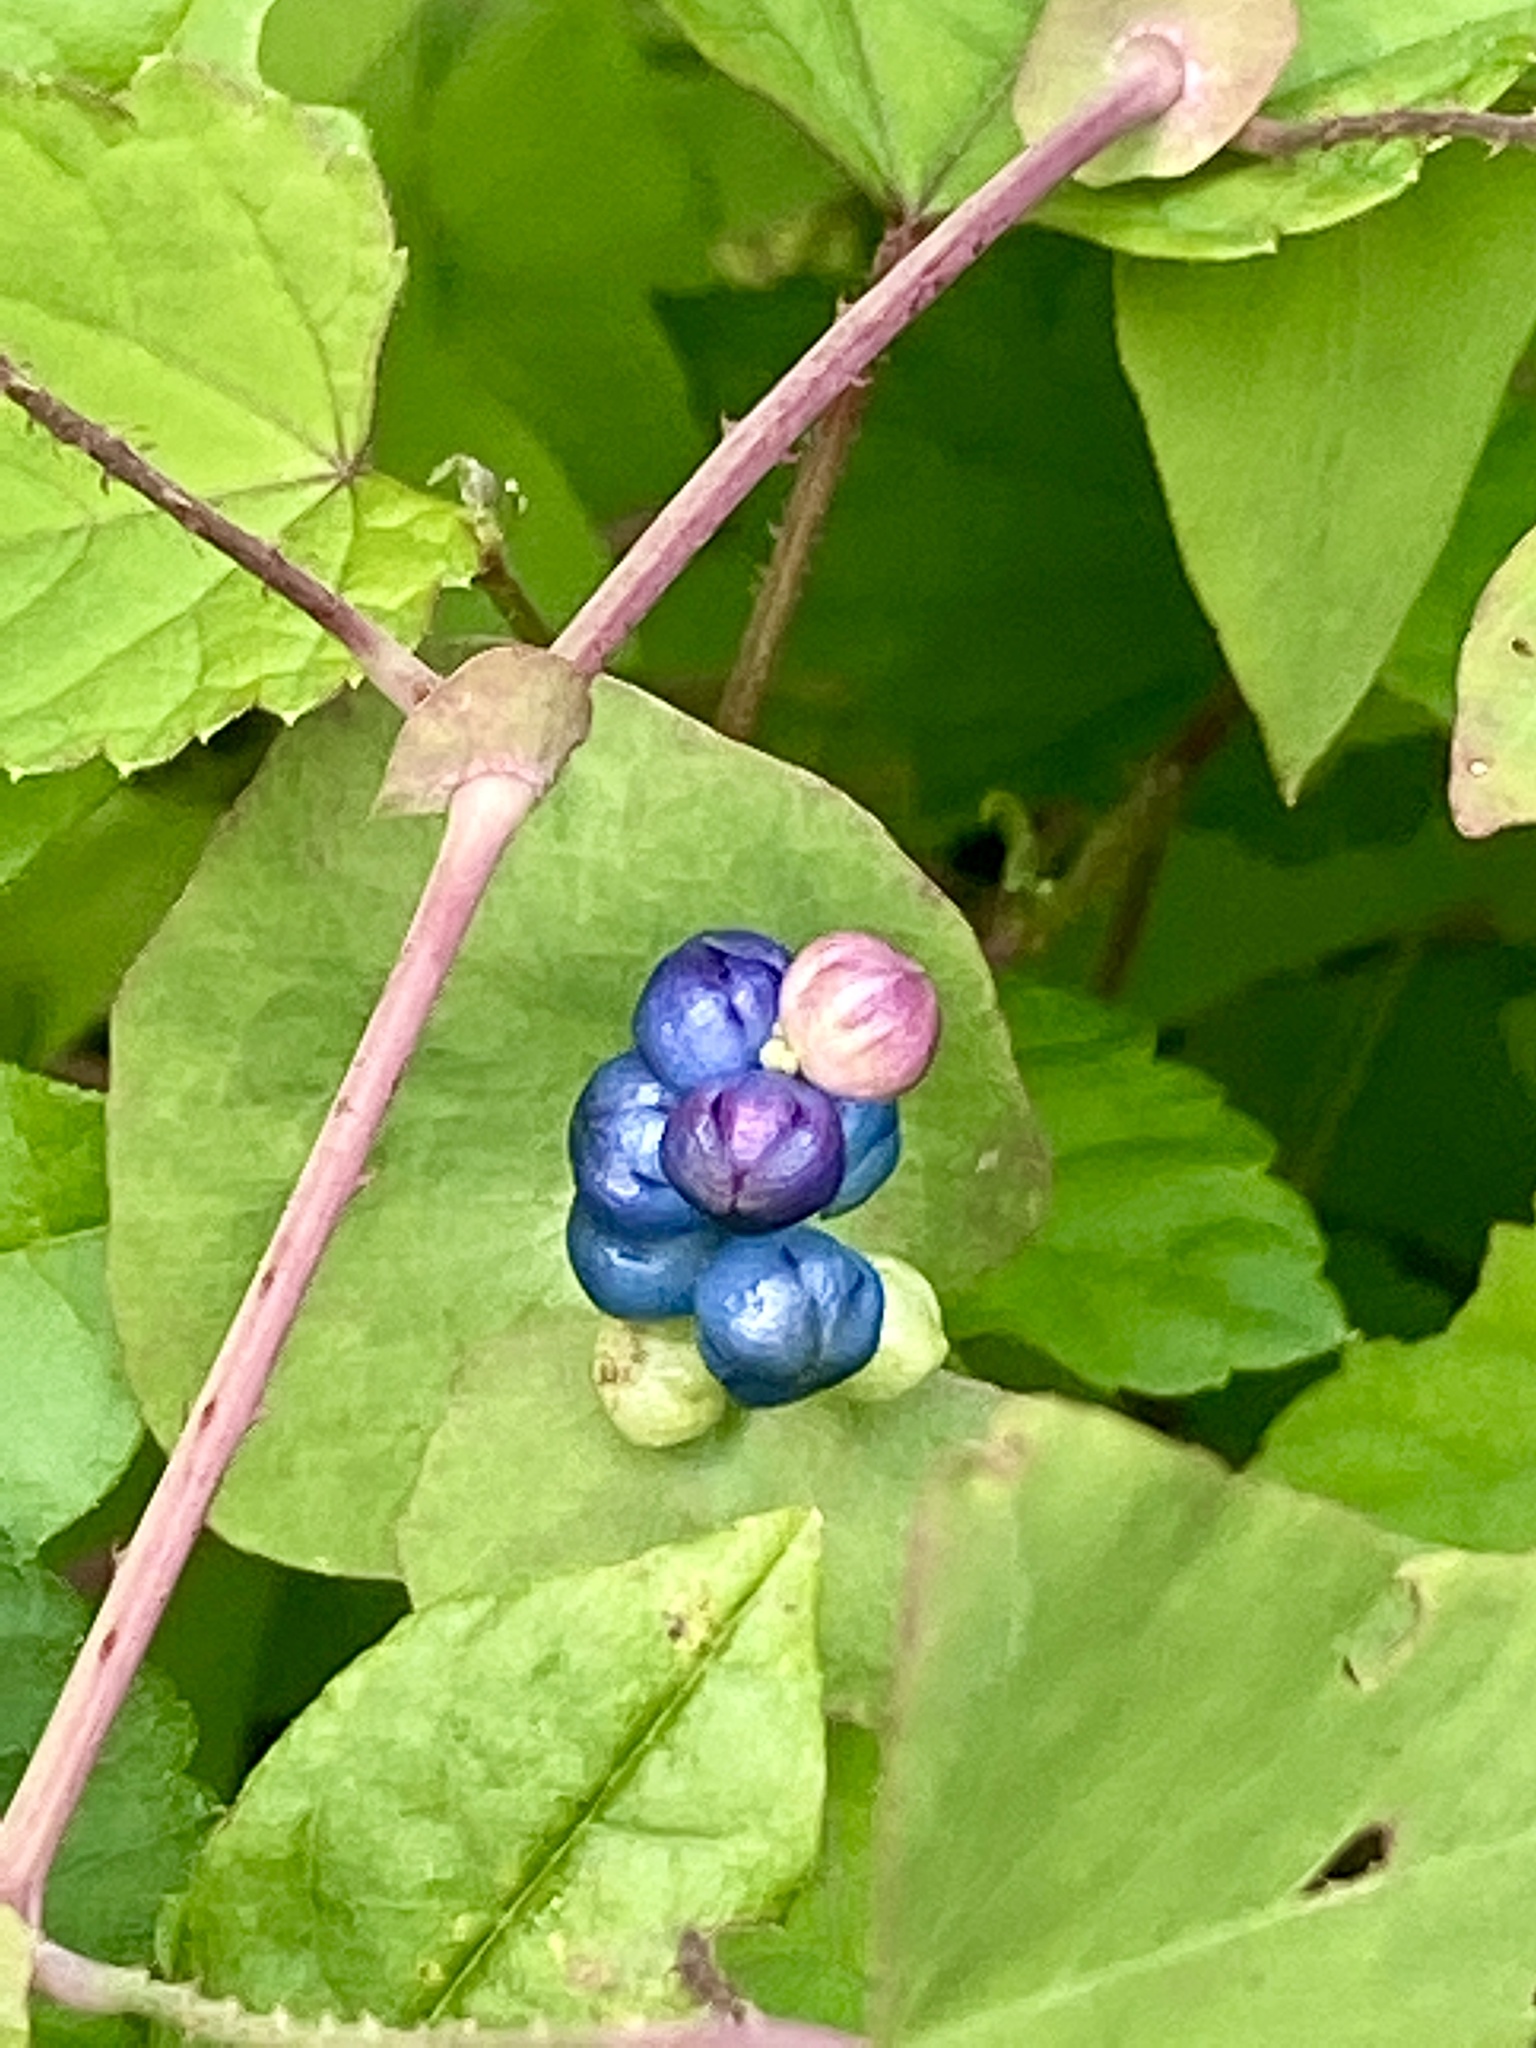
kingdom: Plantae
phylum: Tracheophyta
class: Magnoliopsida
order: Caryophyllales
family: Polygonaceae
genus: Persicaria
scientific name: Persicaria perfoliata
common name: Asiatic tearthumb
